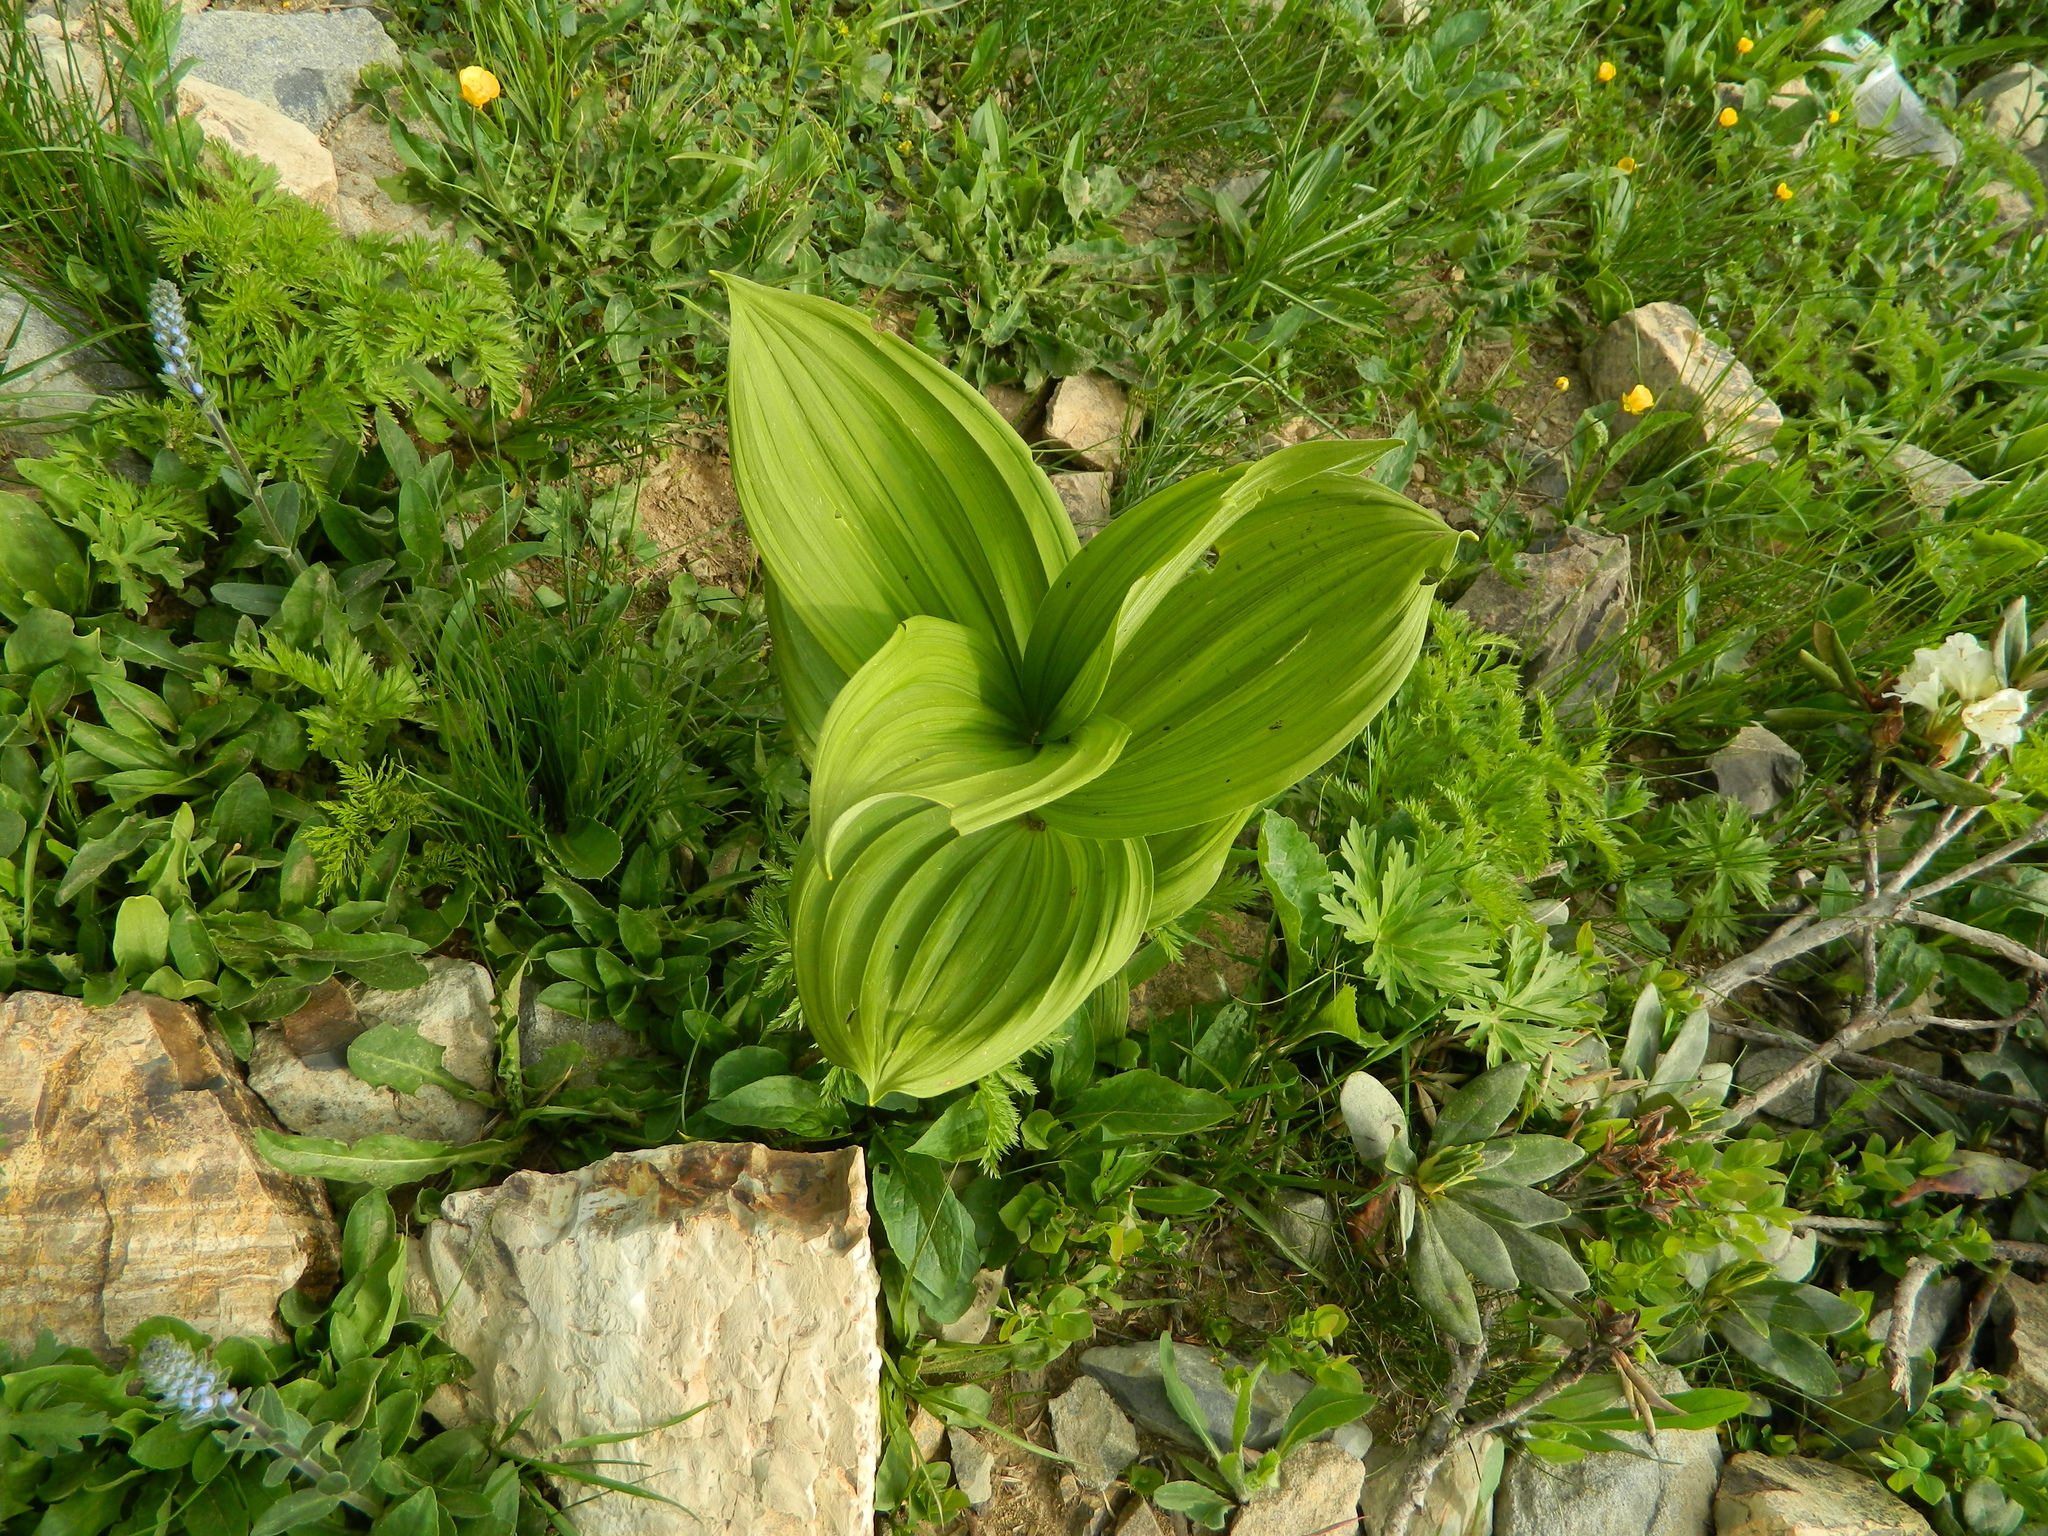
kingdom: Plantae
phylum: Tracheophyta
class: Liliopsida
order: Liliales
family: Melanthiaceae
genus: Veratrum
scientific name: Veratrum lobelianum
